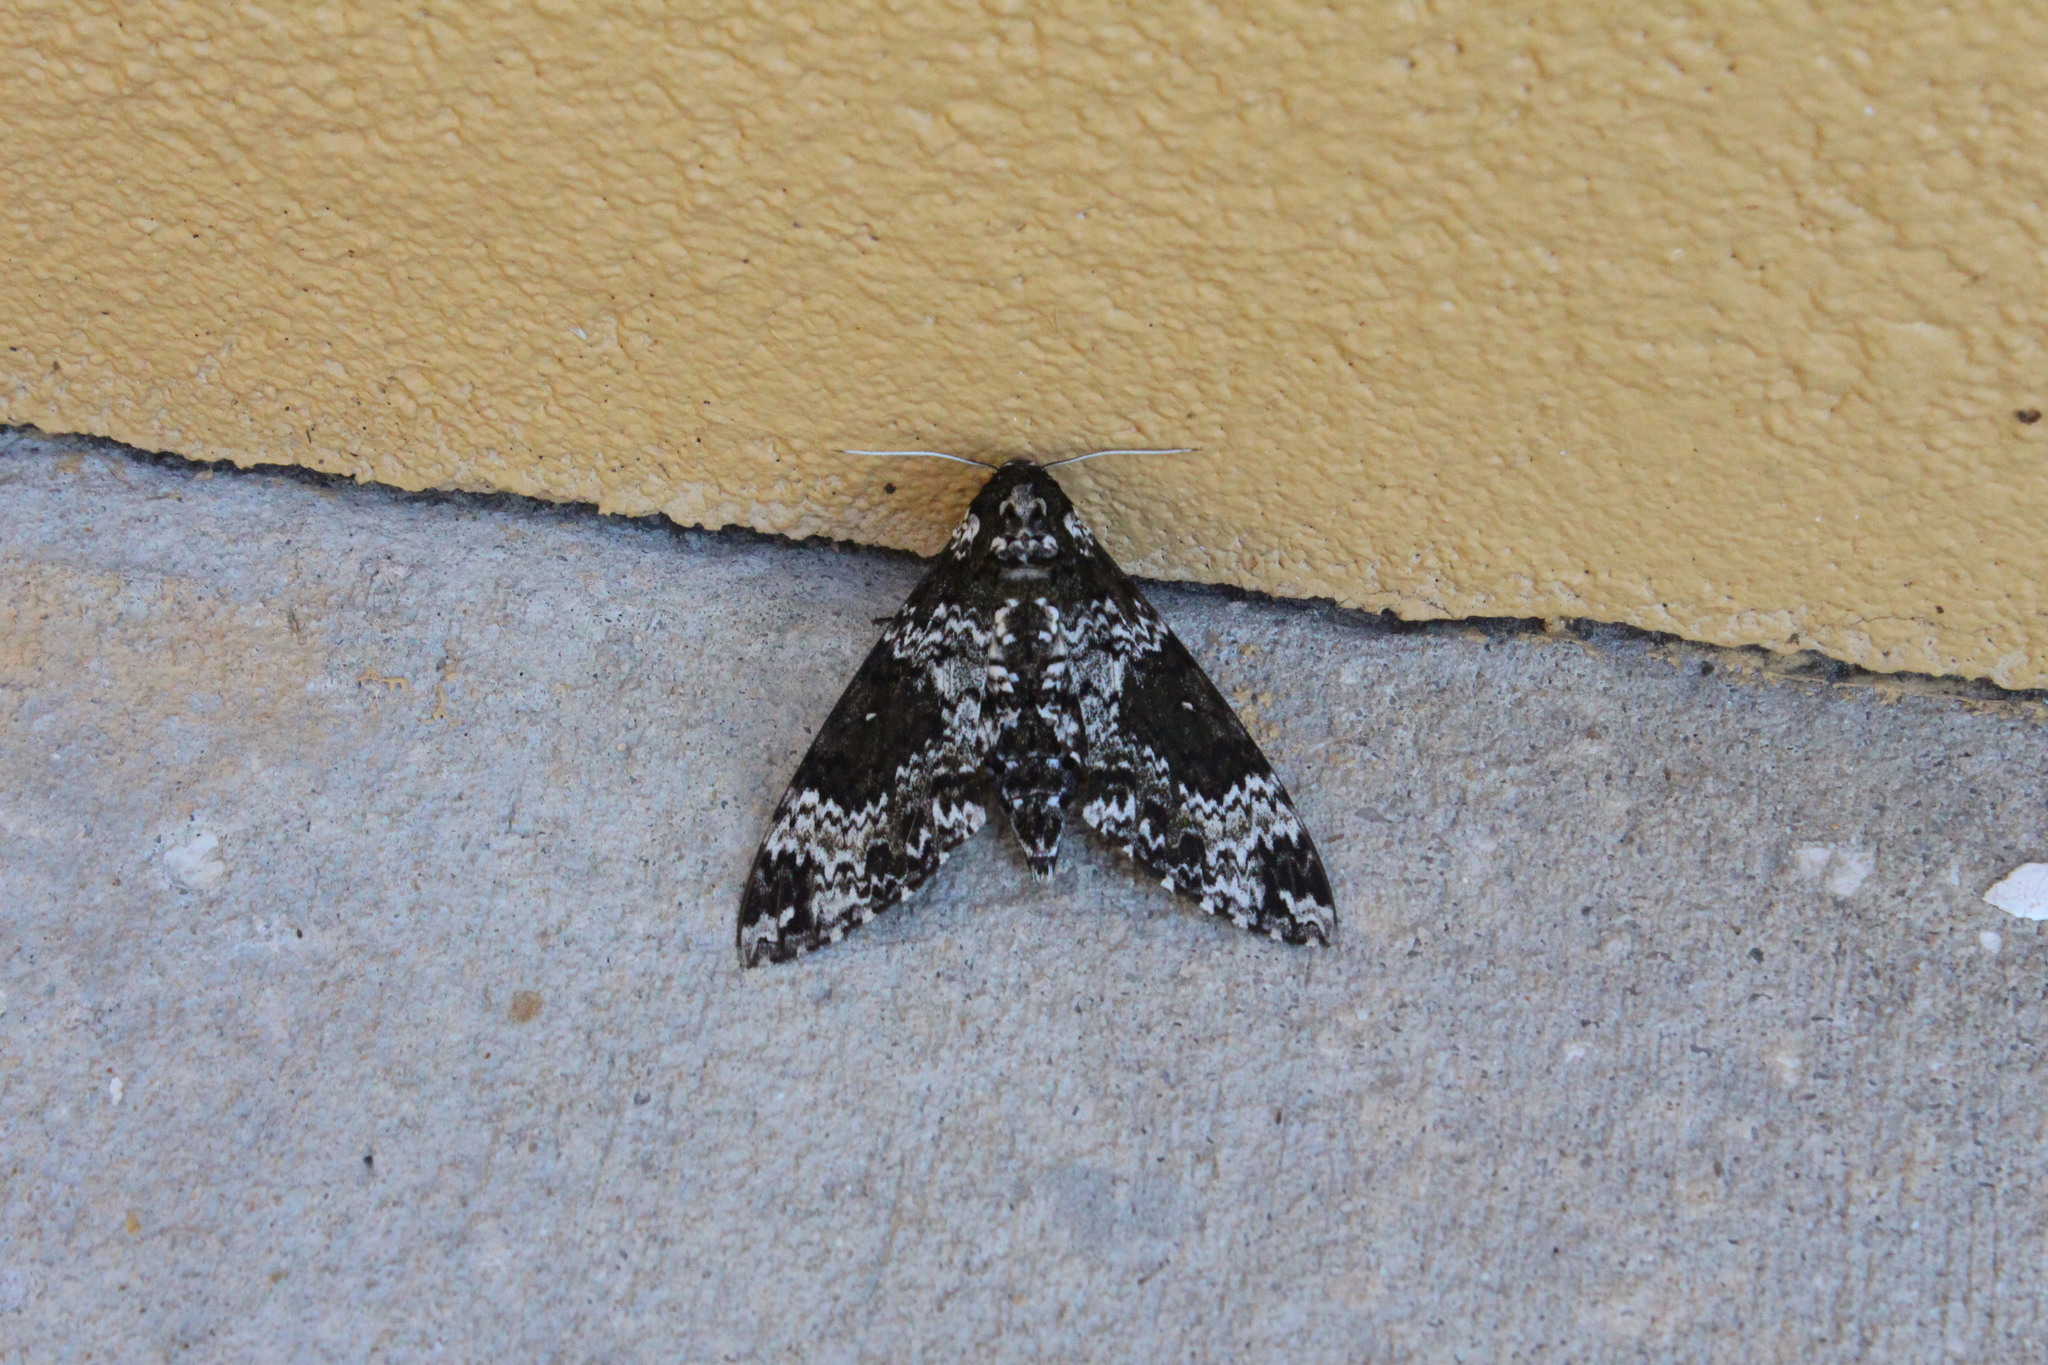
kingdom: Animalia
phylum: Arthropoda
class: Insecta
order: Lepidoptera
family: Sphingidae
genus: Manduca
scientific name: Manduca rustica
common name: Rustic sphinx
